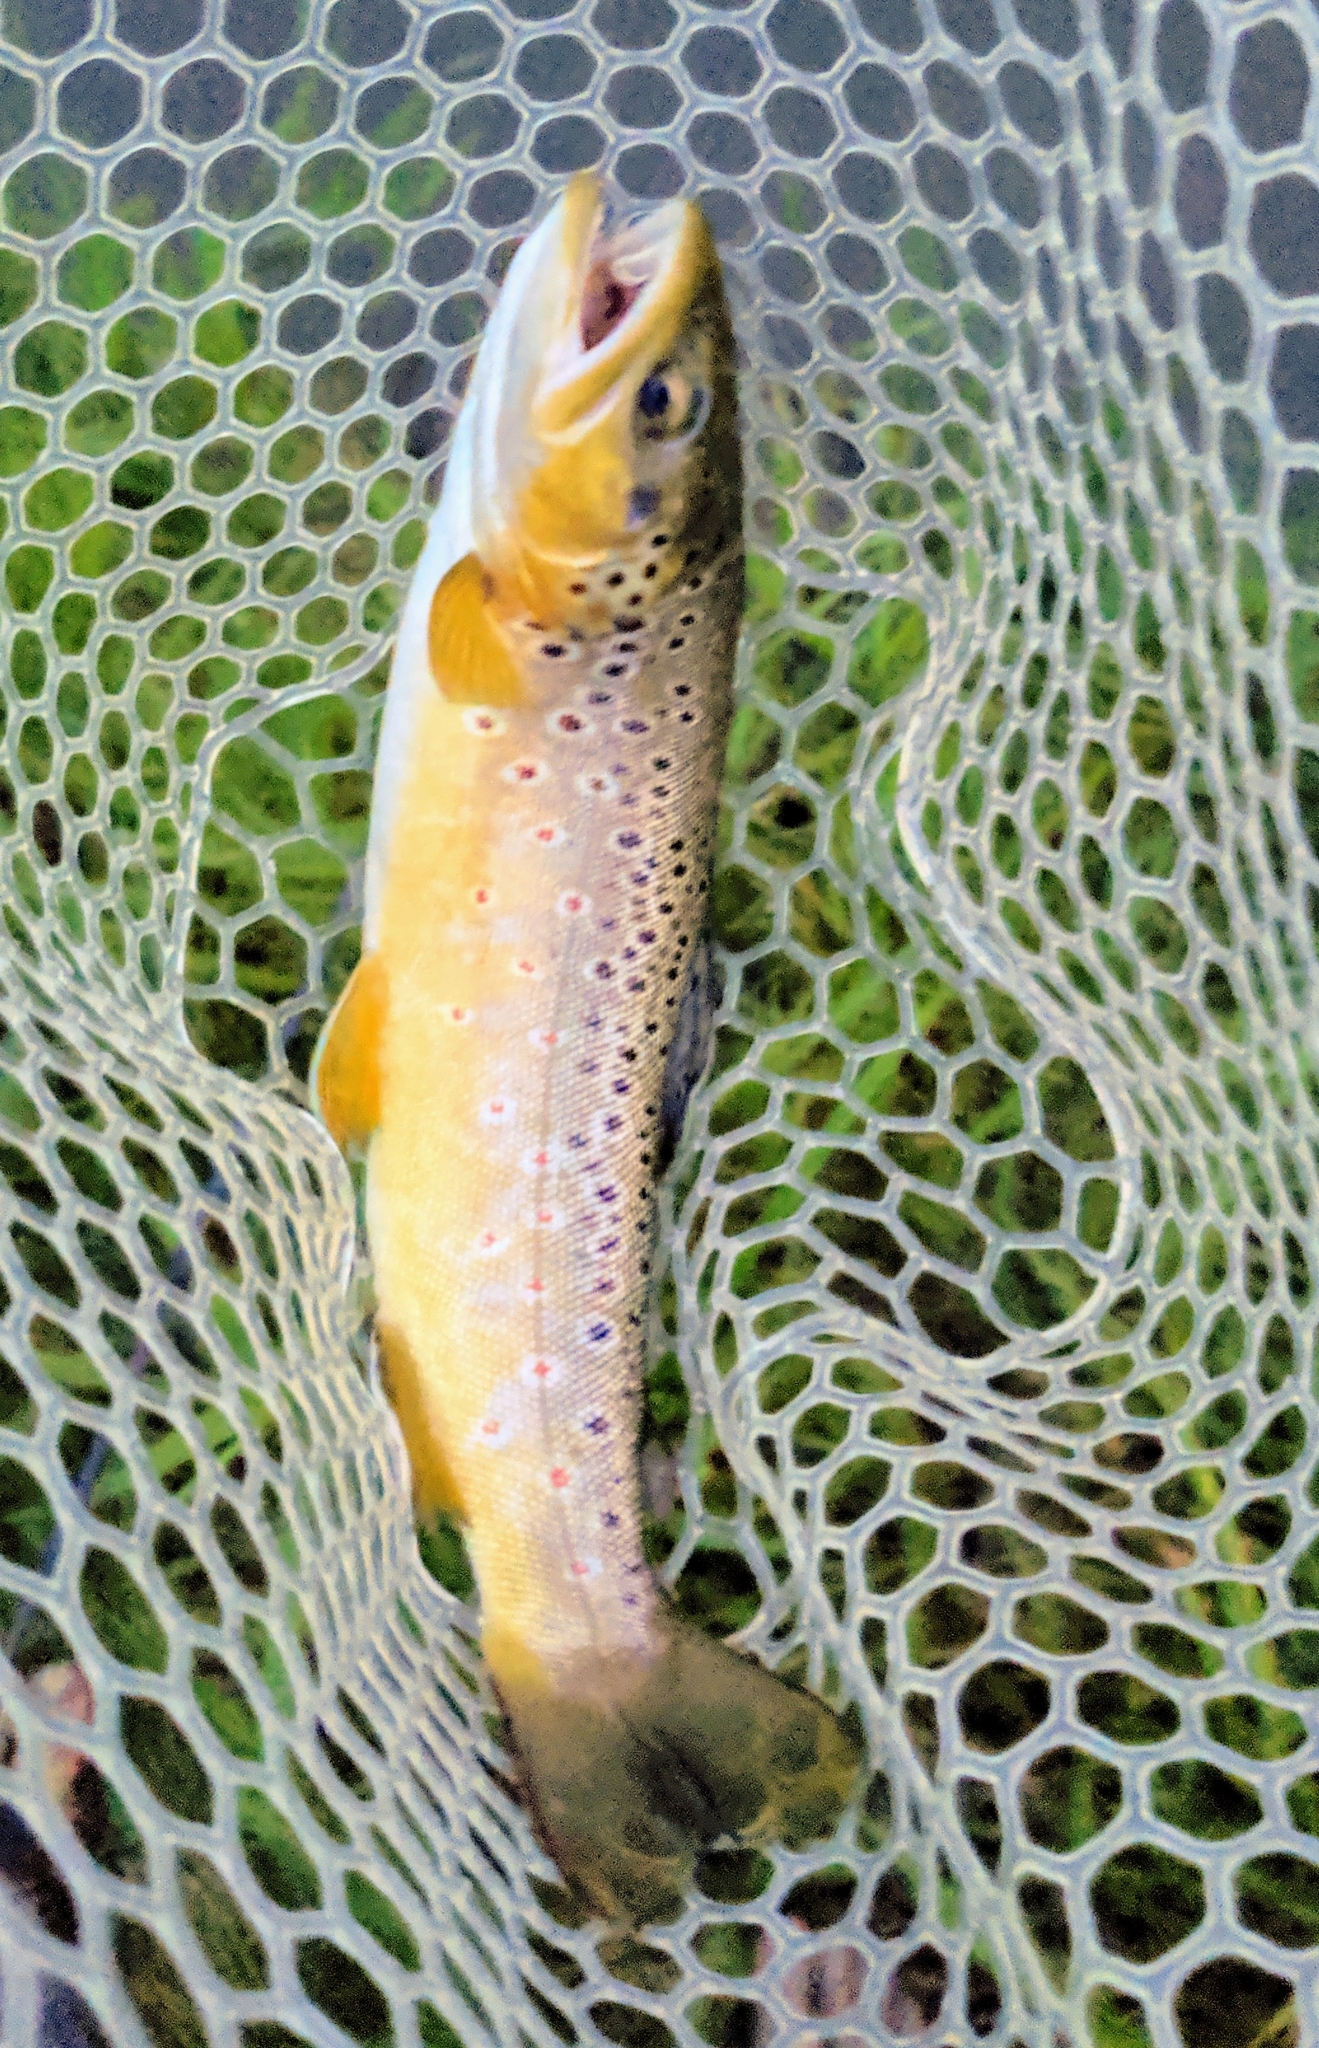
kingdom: Animalia
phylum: Chordata
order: Salmoniformes
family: Salmonidae
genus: Salmo
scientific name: Salmo trutta
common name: Brown trout
